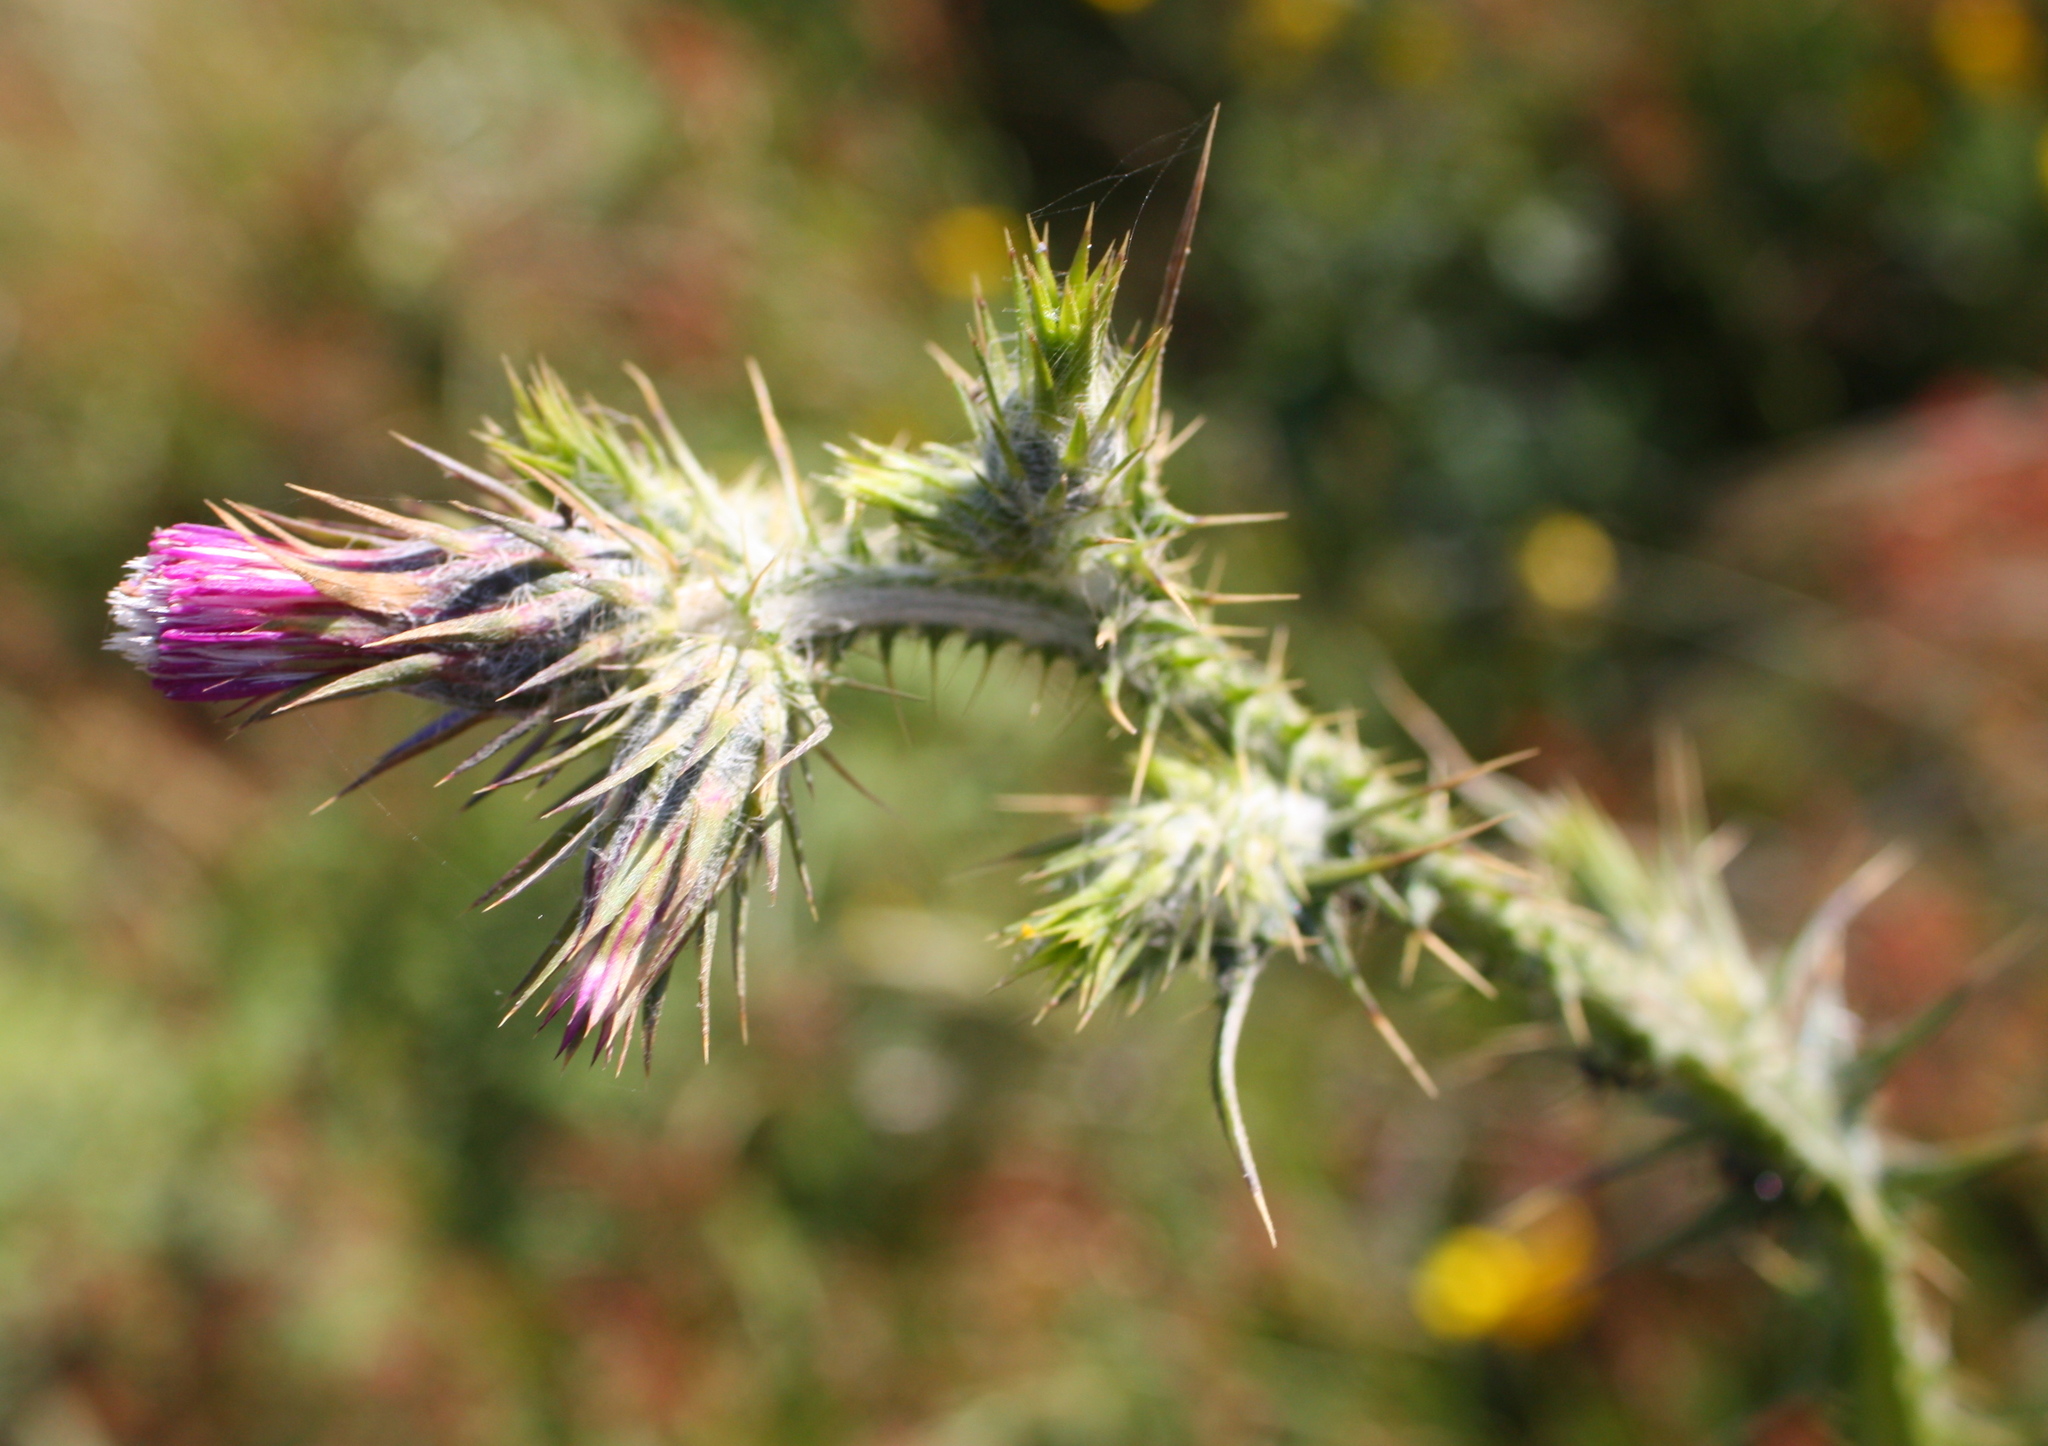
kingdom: Plantae
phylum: Tracheophyta
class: Magnoliopsida
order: Asterales
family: Asteraceae
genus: Carduus
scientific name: Carduus pycnocephalus
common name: Plymouth thistle
